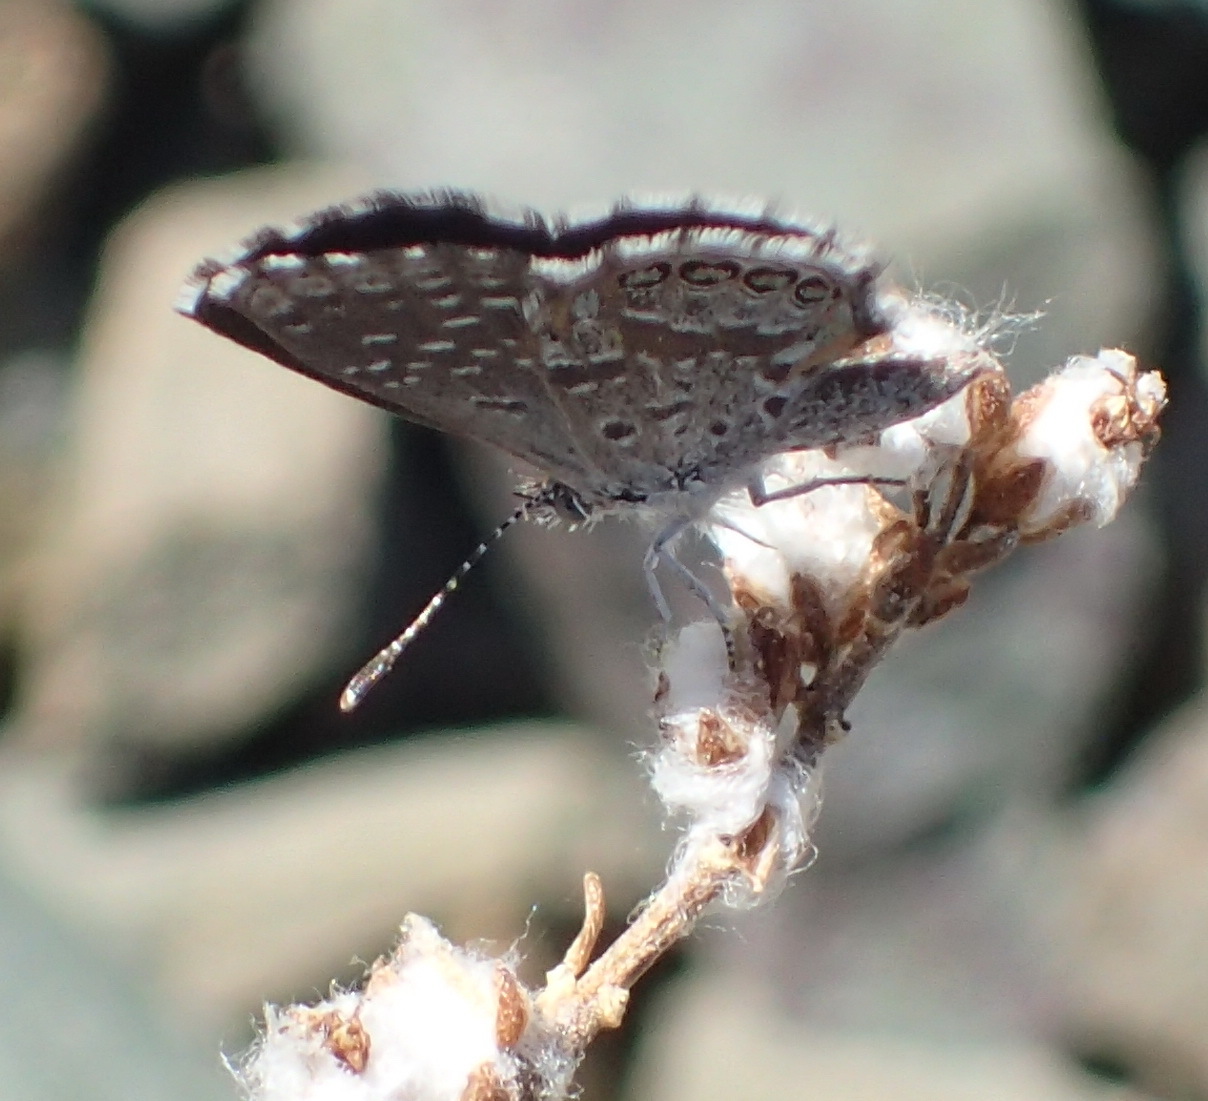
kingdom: Animalia
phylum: Arthropoda
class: Insecta
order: Lepidoptera
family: Lycaenidae
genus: Oraidium
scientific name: Oraidium barberae
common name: Dwarf blue
